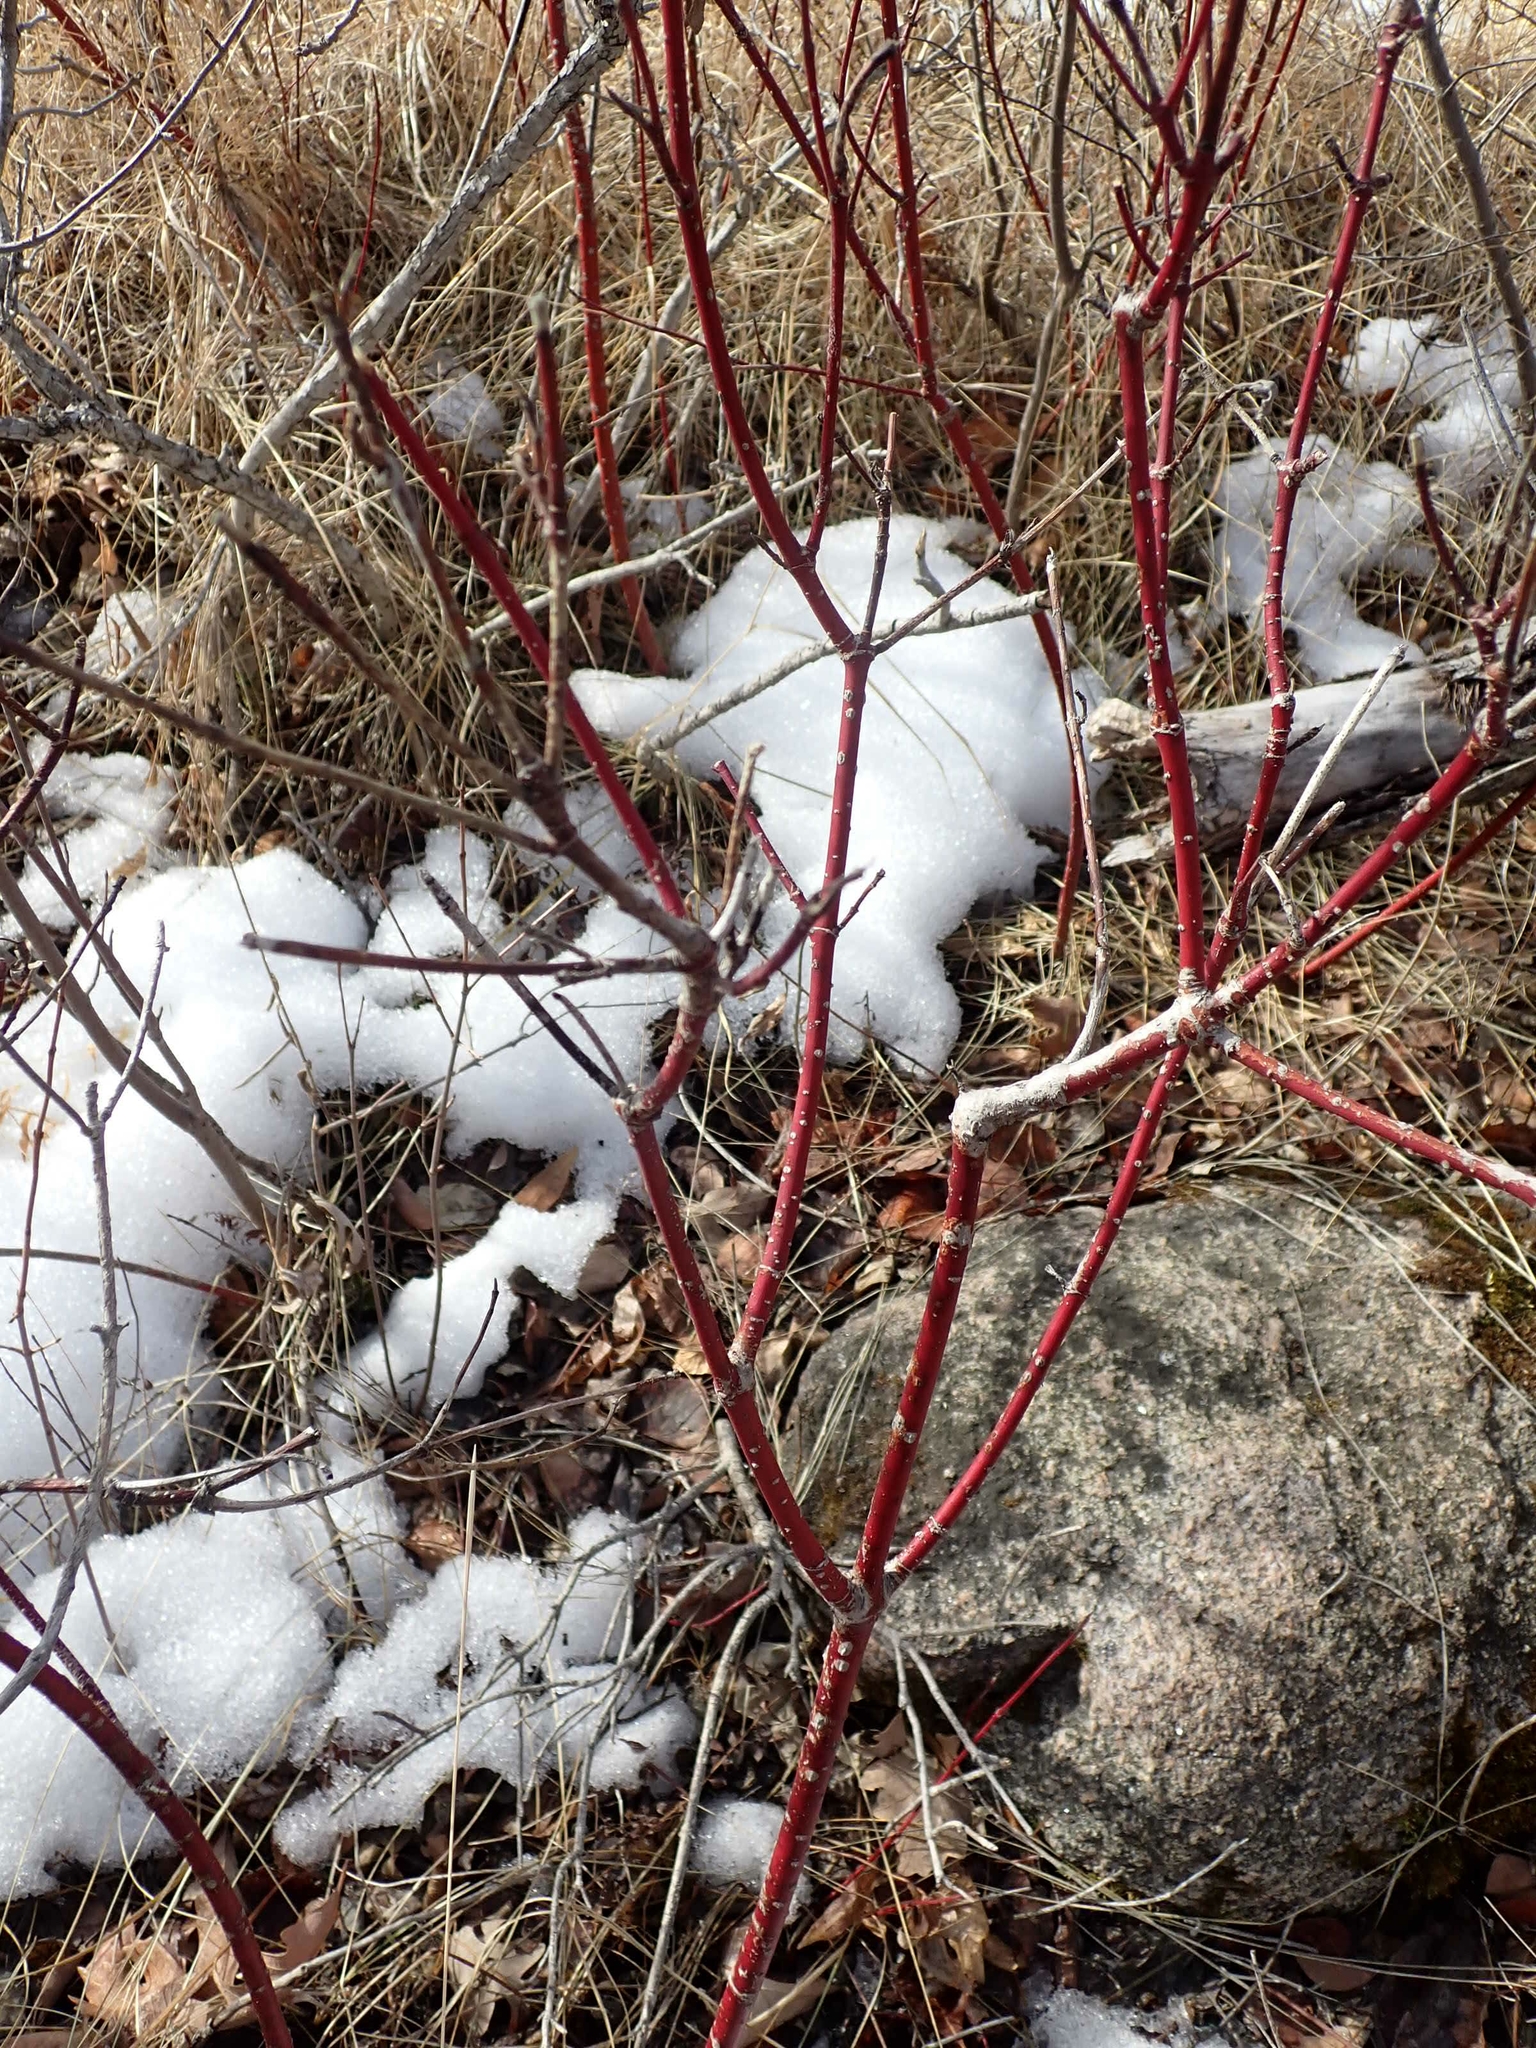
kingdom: Plantae
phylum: Tracheophyta
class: Magnoliopsida
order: Cornales
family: Cornaceae
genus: Cornus
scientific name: Cornus sericea
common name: Red-osier dogwood
